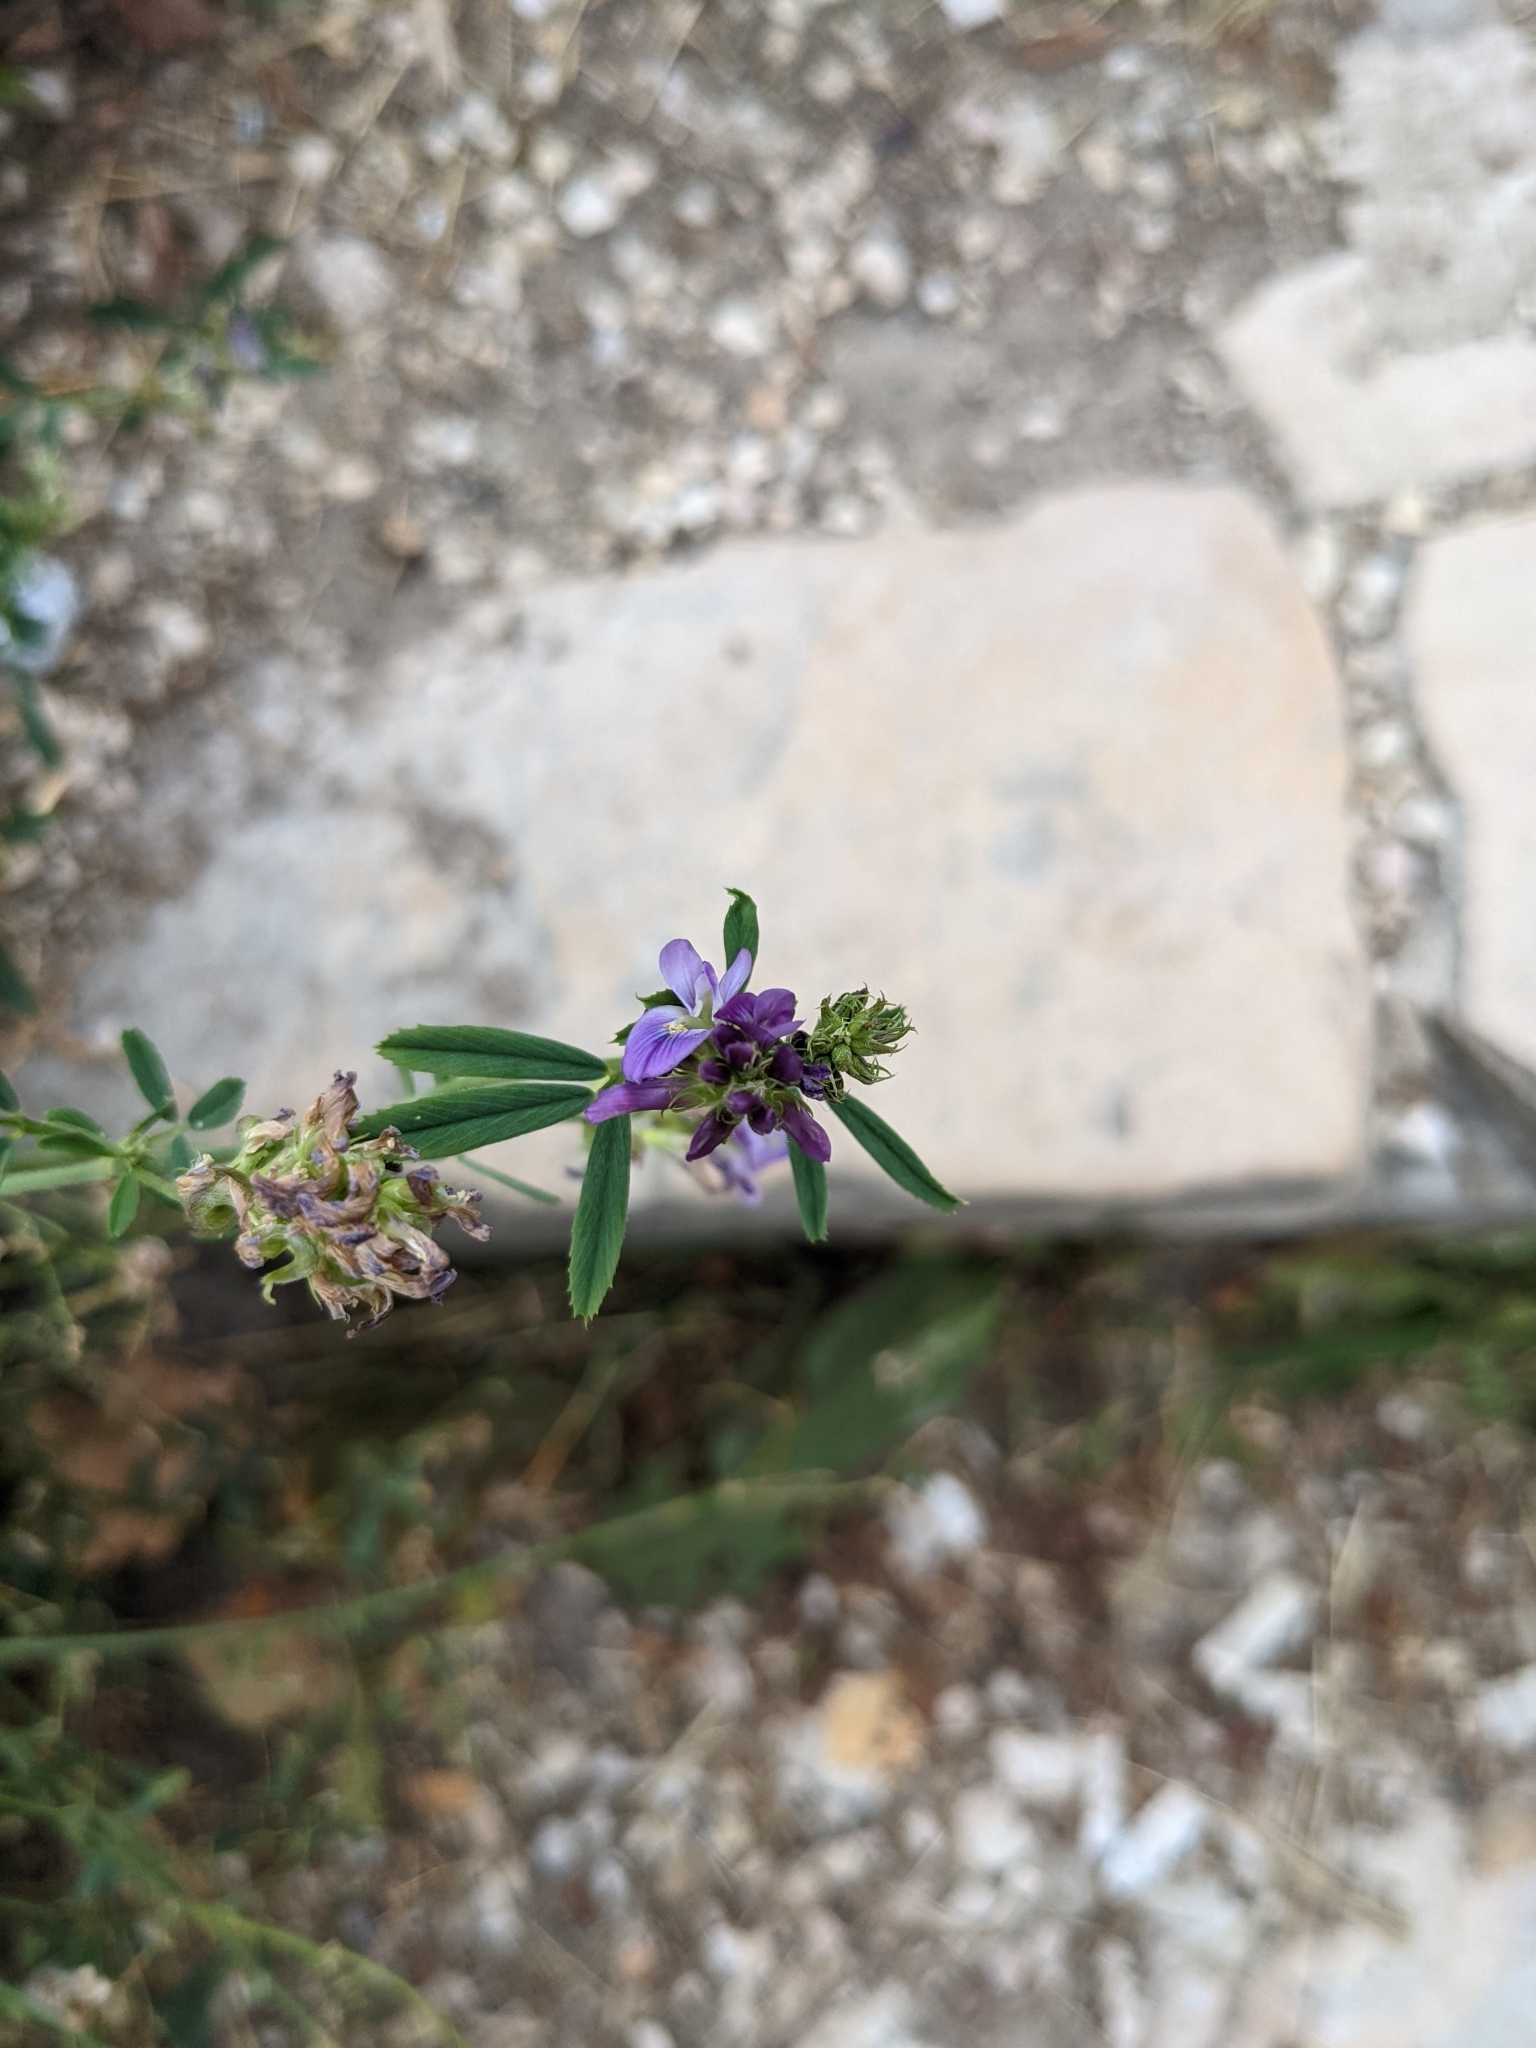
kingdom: Plantae
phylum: Tracheophyta
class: Magnoliopsida
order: Fabales
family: Fabaceae
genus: Medicago
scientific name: Medicago sativa
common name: Alfalfa
